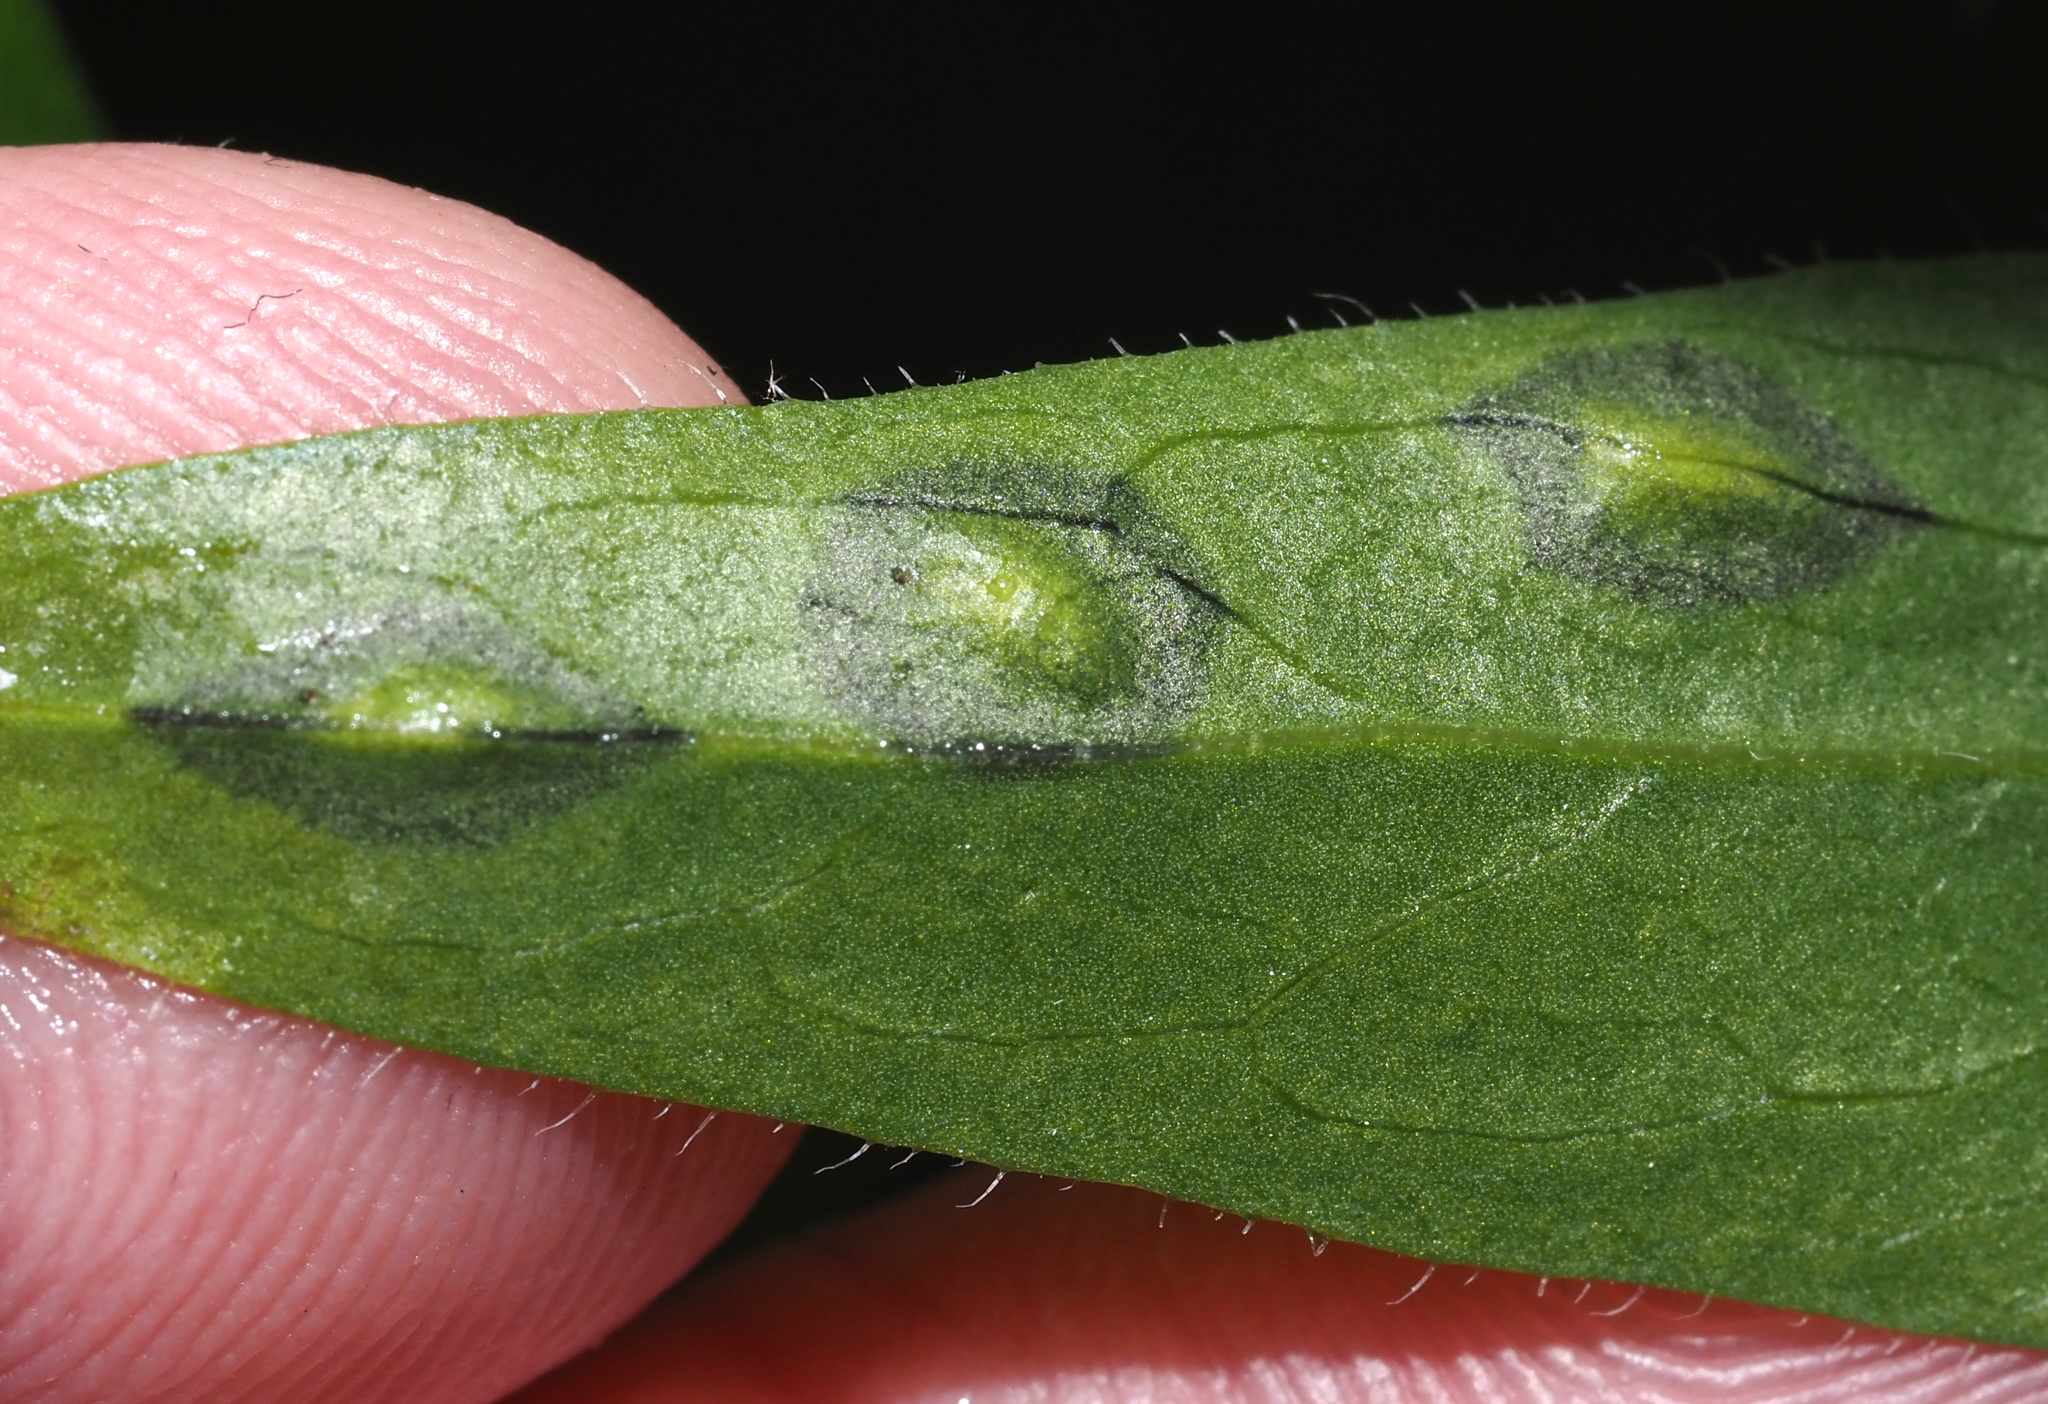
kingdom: Animalia
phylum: Arthropoda
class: Insecta
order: Diptera
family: Cecidomyiidae
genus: Asteromyia
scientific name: Asteromyia modesta
